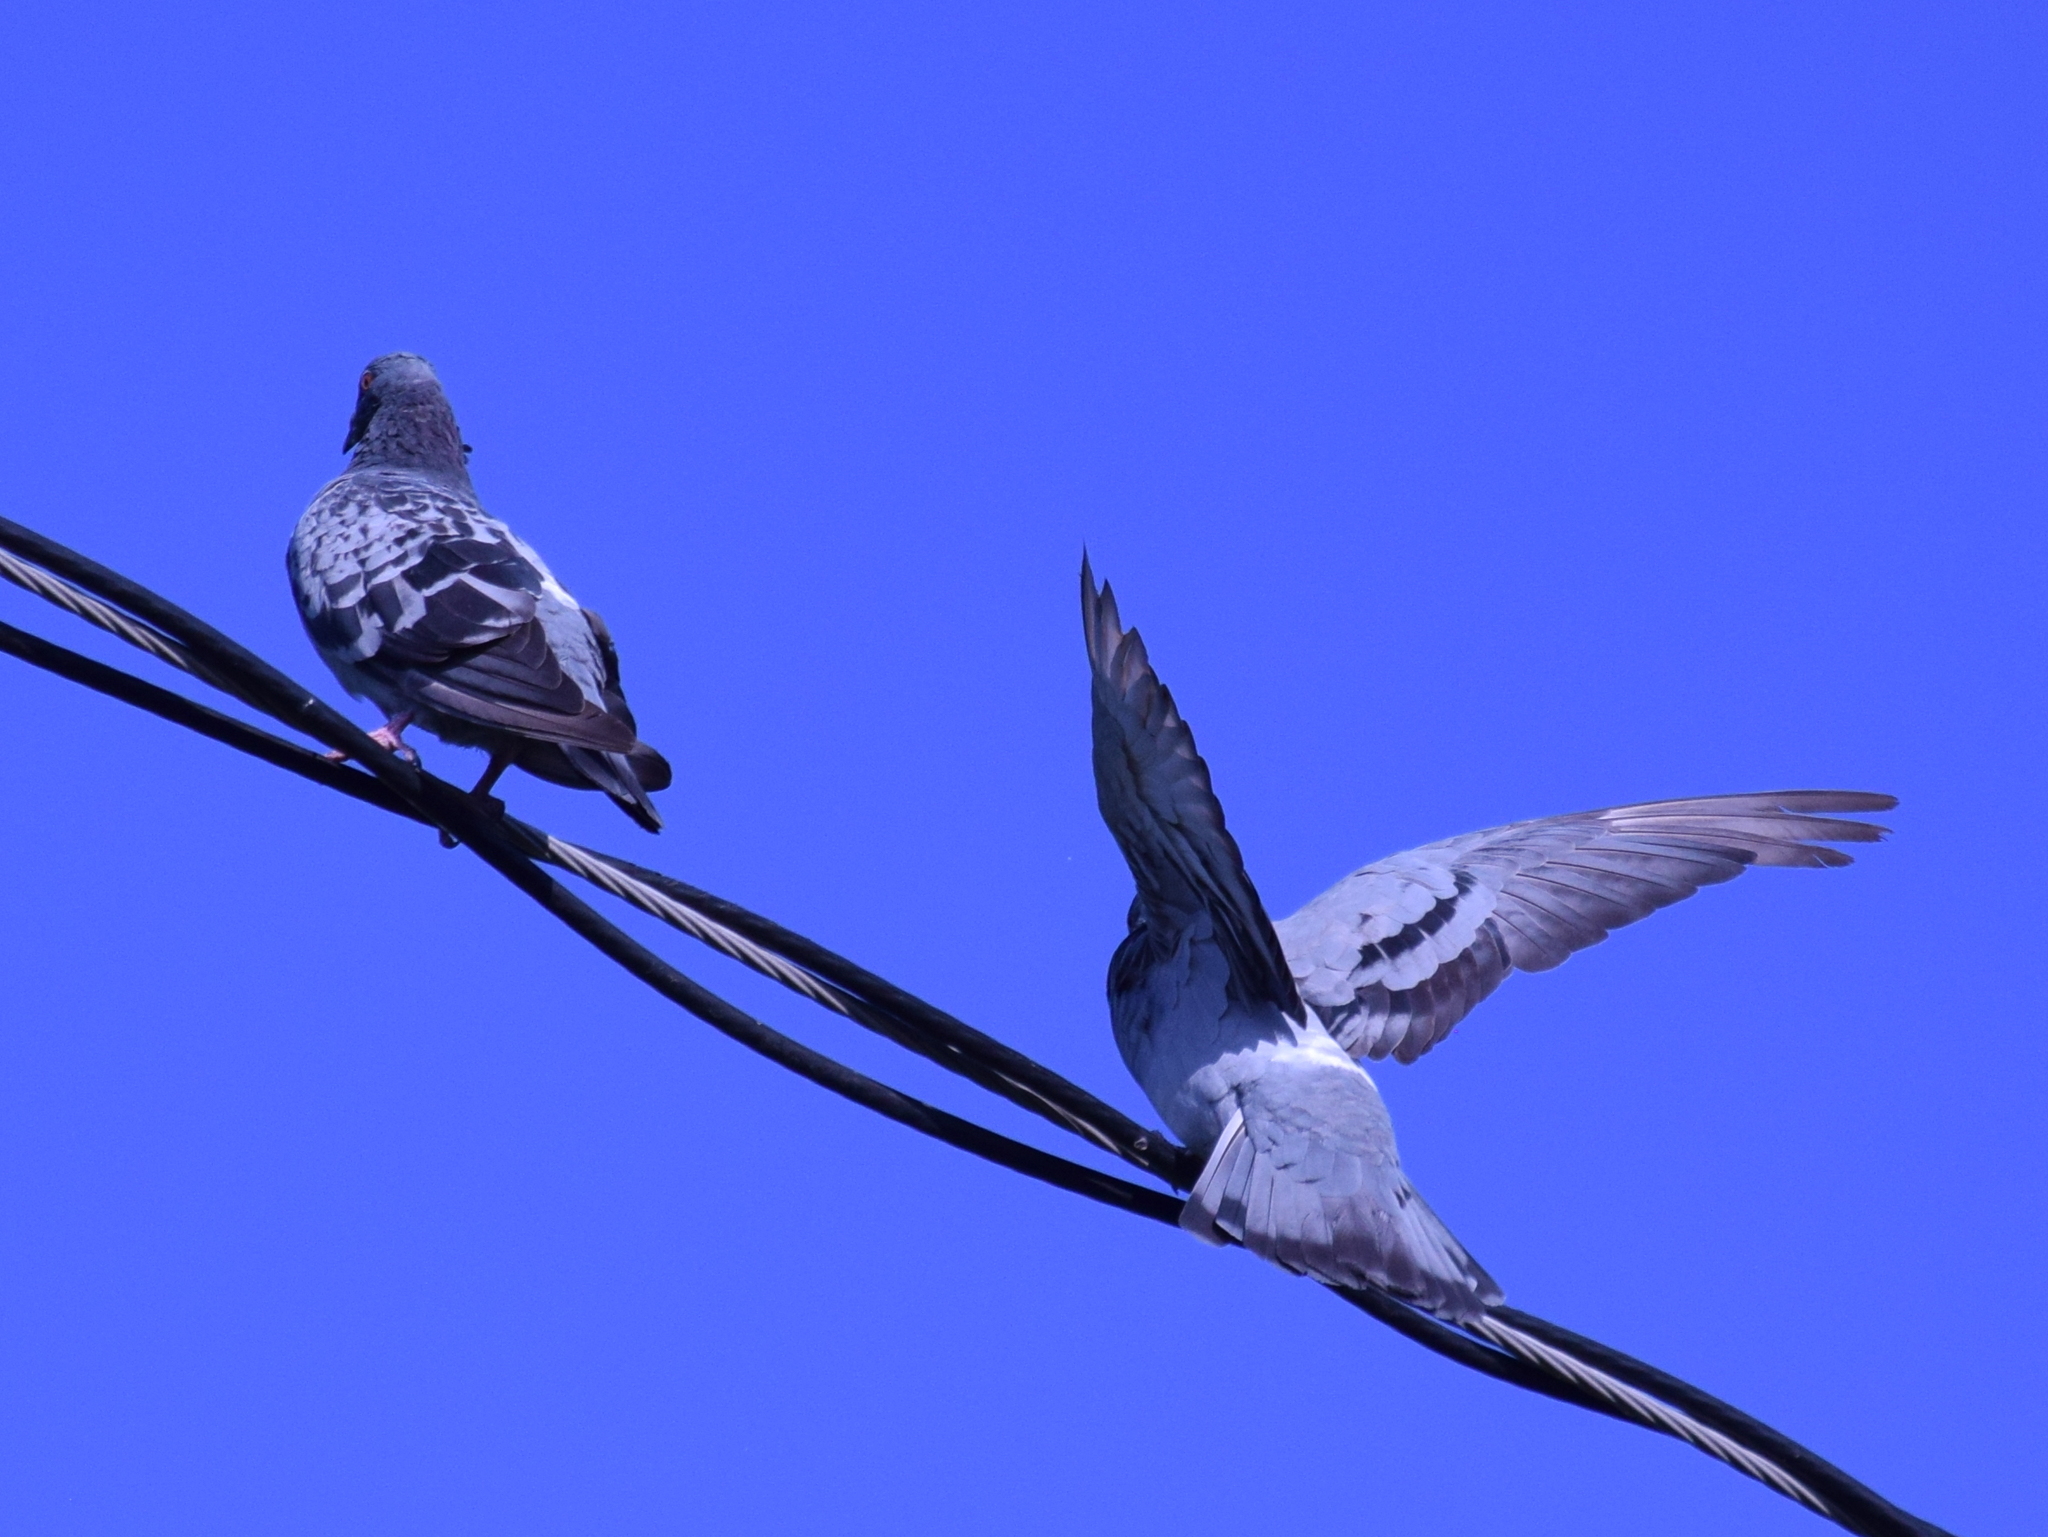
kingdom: Animalia
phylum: Chordata
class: Aves
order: Columbiformes
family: Columbidae
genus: Columba
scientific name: Columba livia
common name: Rock pigeon
